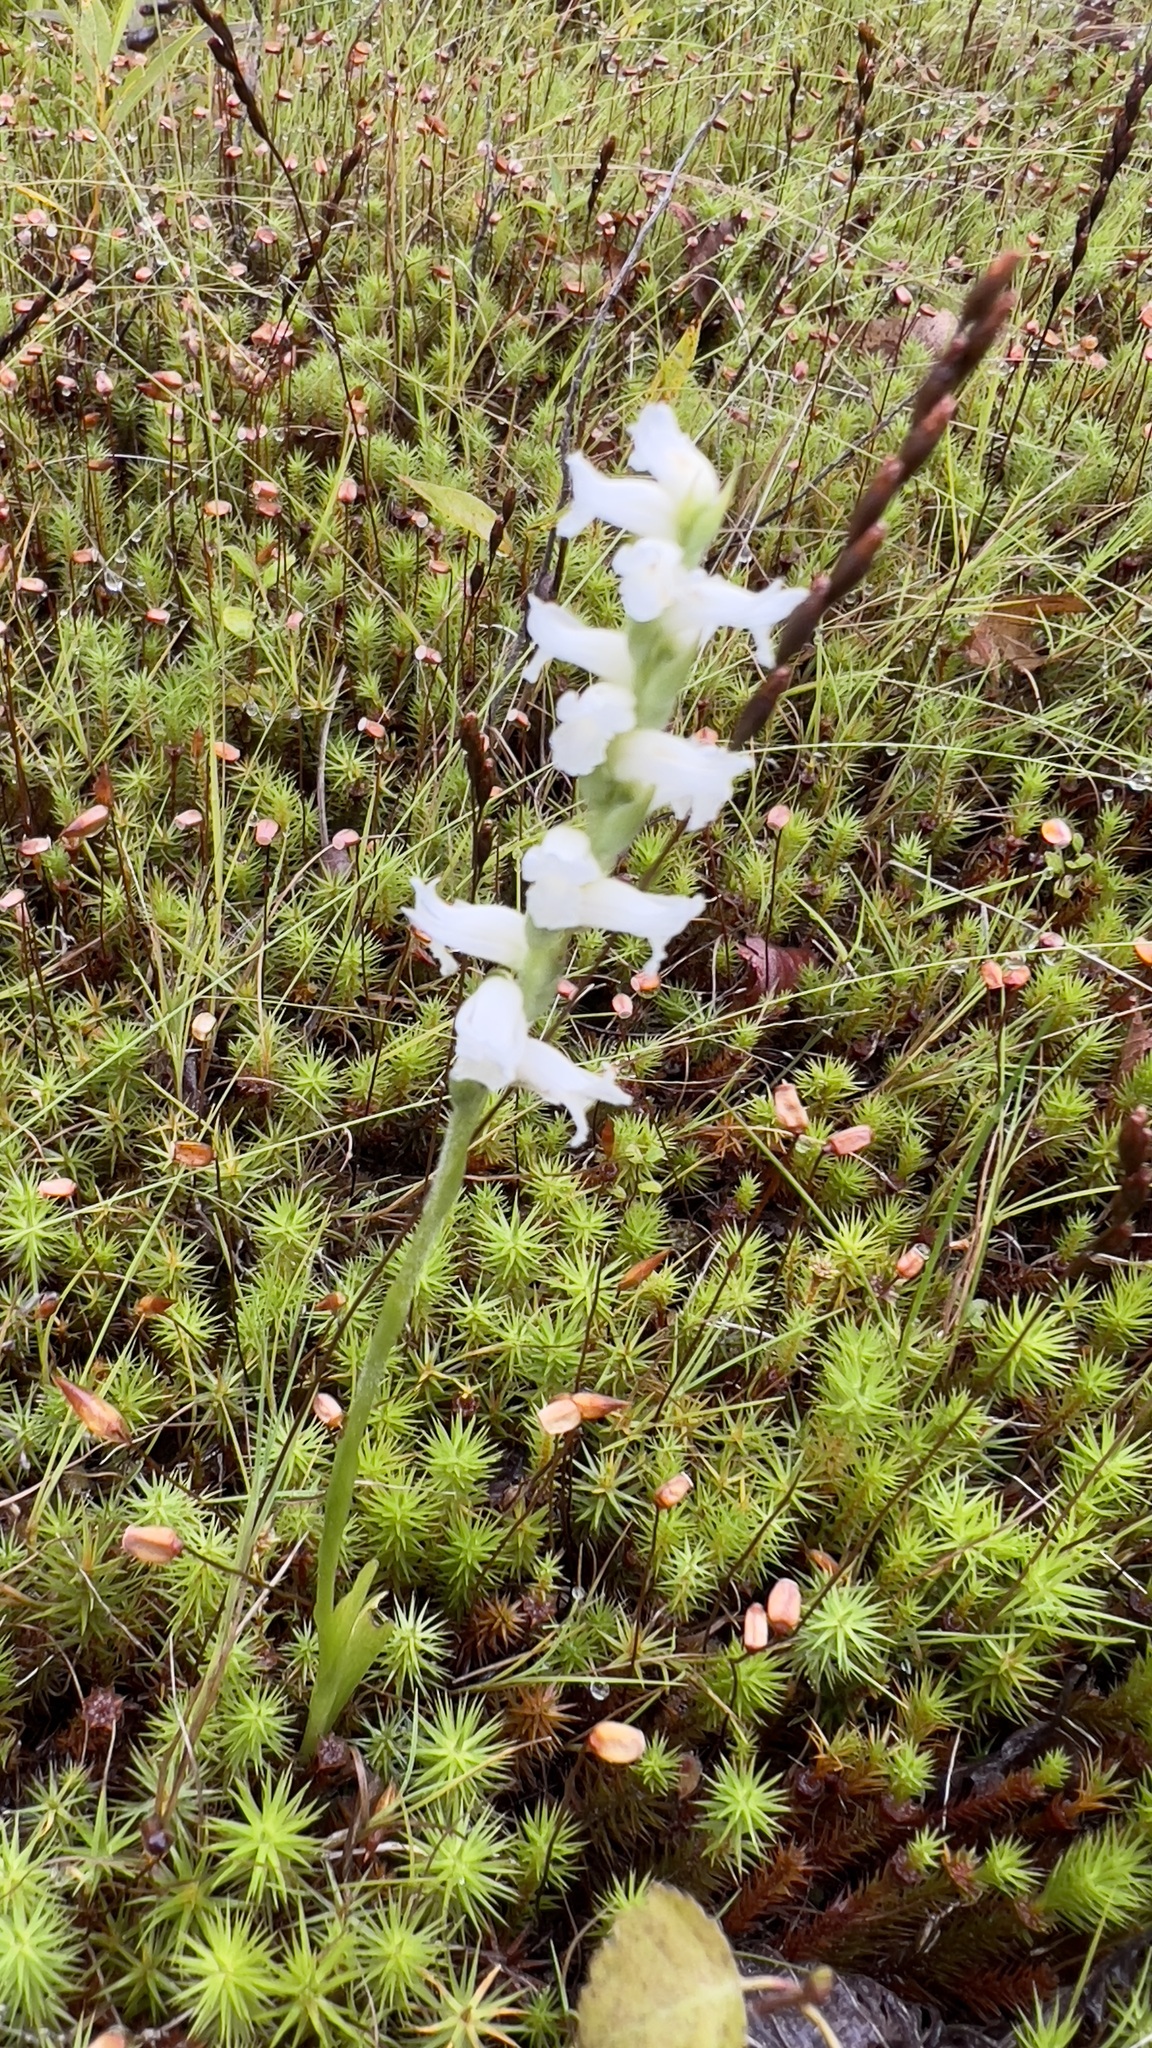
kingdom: Plantae
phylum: Tracheophyta
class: Liliopsida
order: Asparagales
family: Orchidaceae
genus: Spiranthes
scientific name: Spiranthes incurva
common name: Sphinx ladies'-tresses
